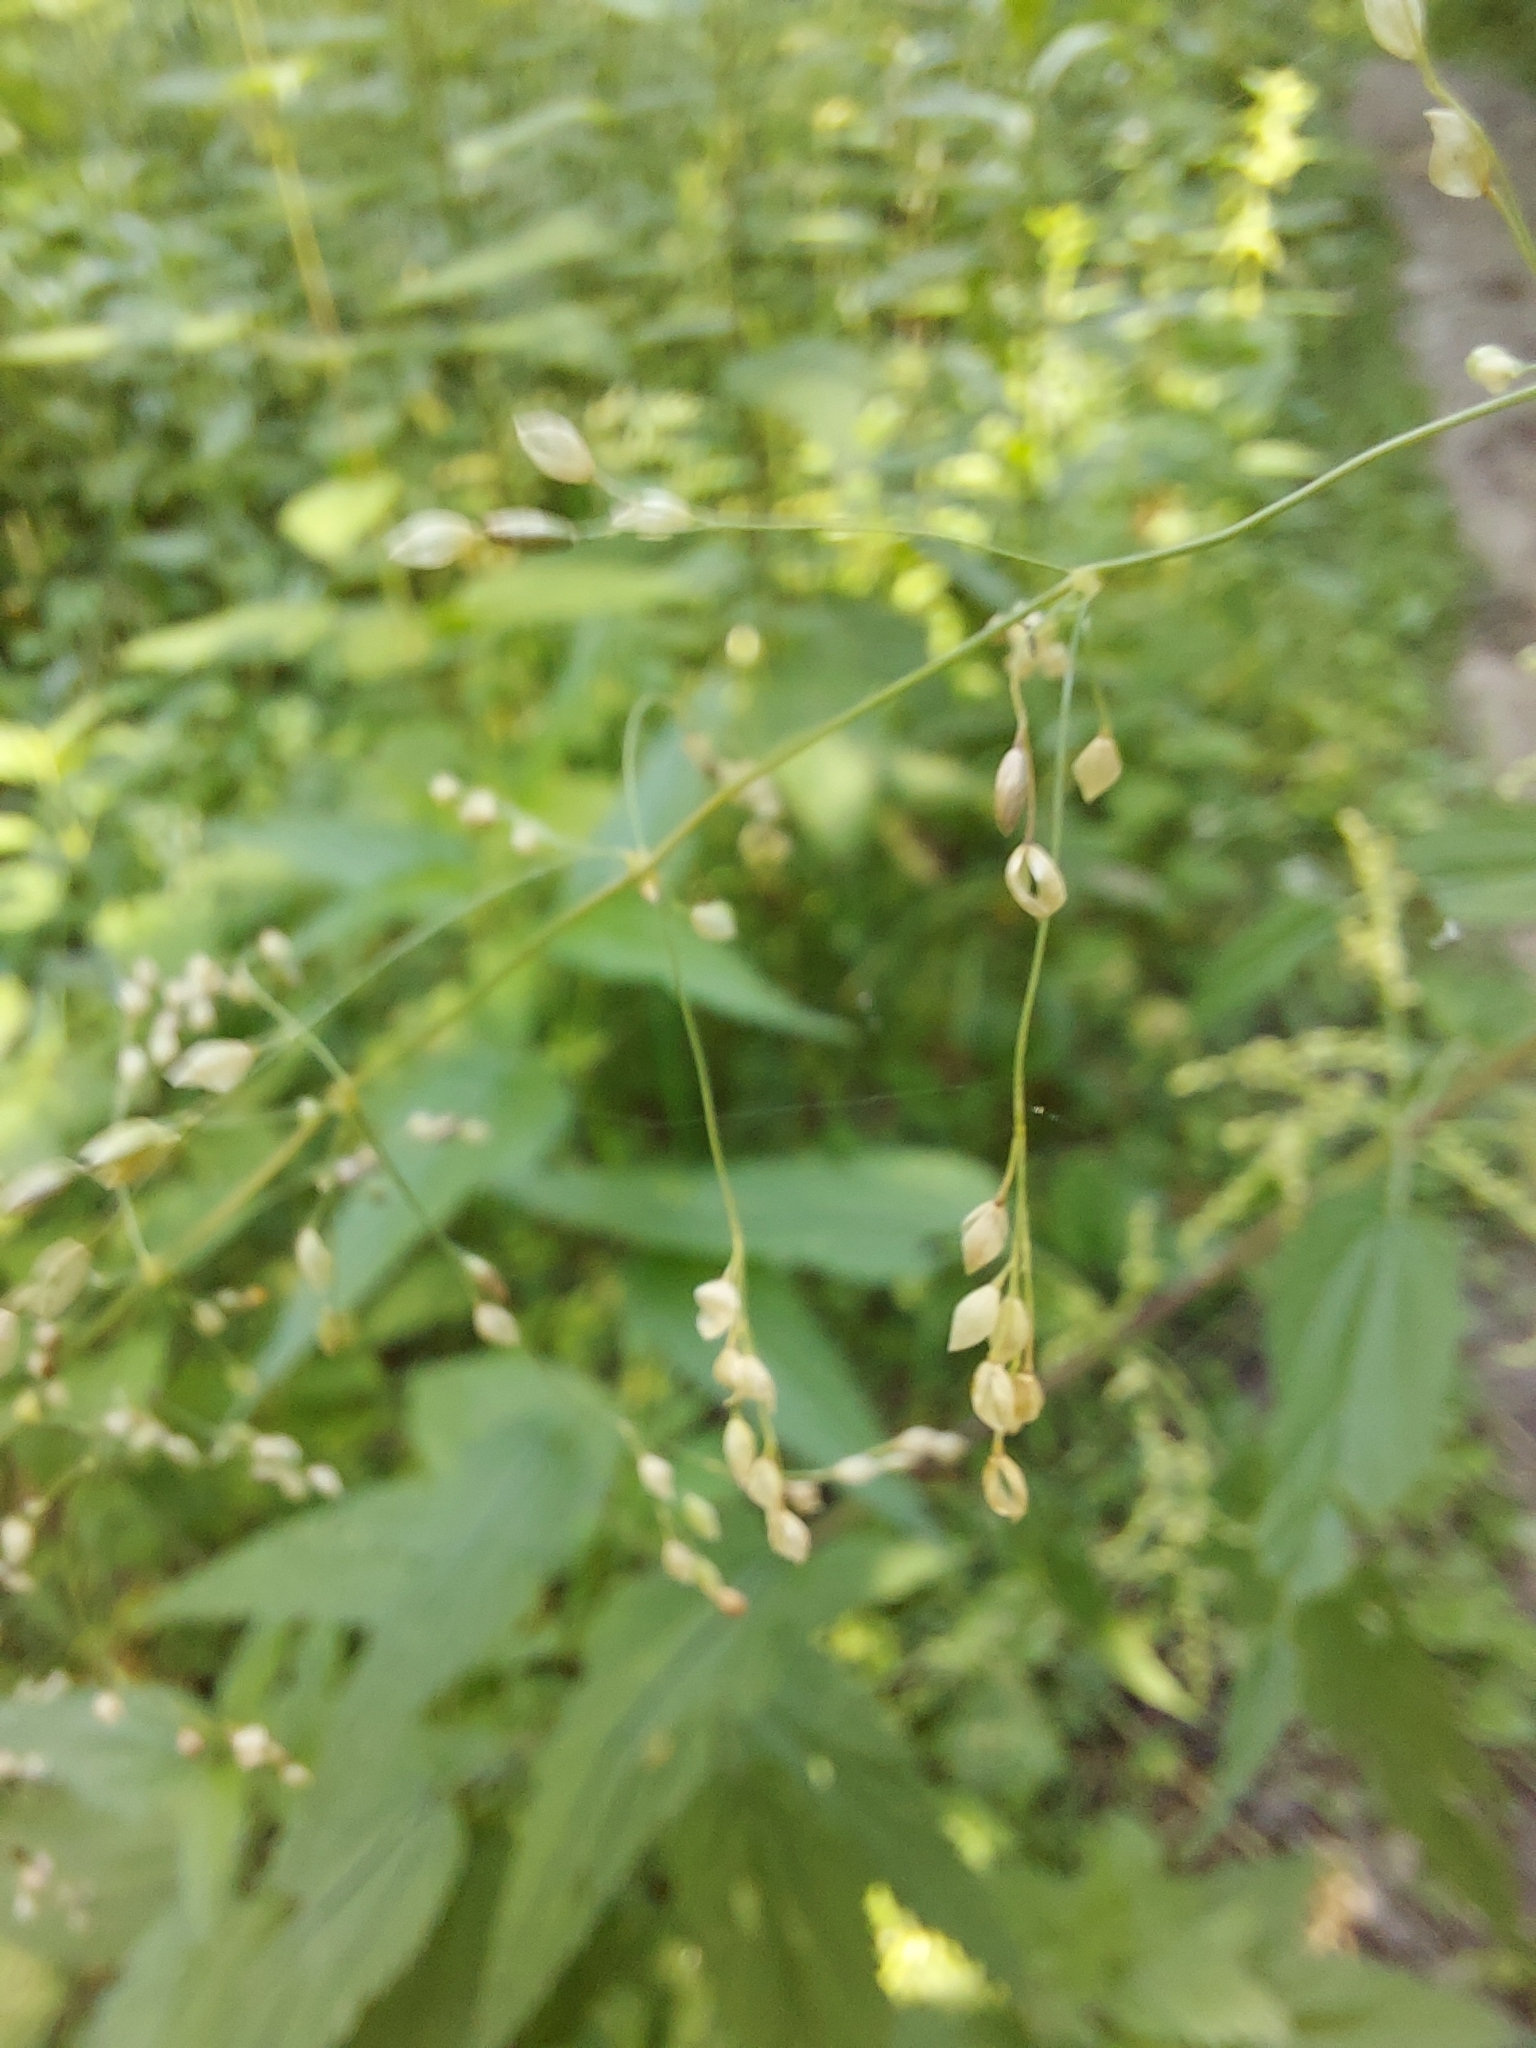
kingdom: Plantae
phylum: Tracheophyta
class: Liliopsida
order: Poales
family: Poaceae
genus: Milium
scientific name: Milium effusum
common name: Wood millet
